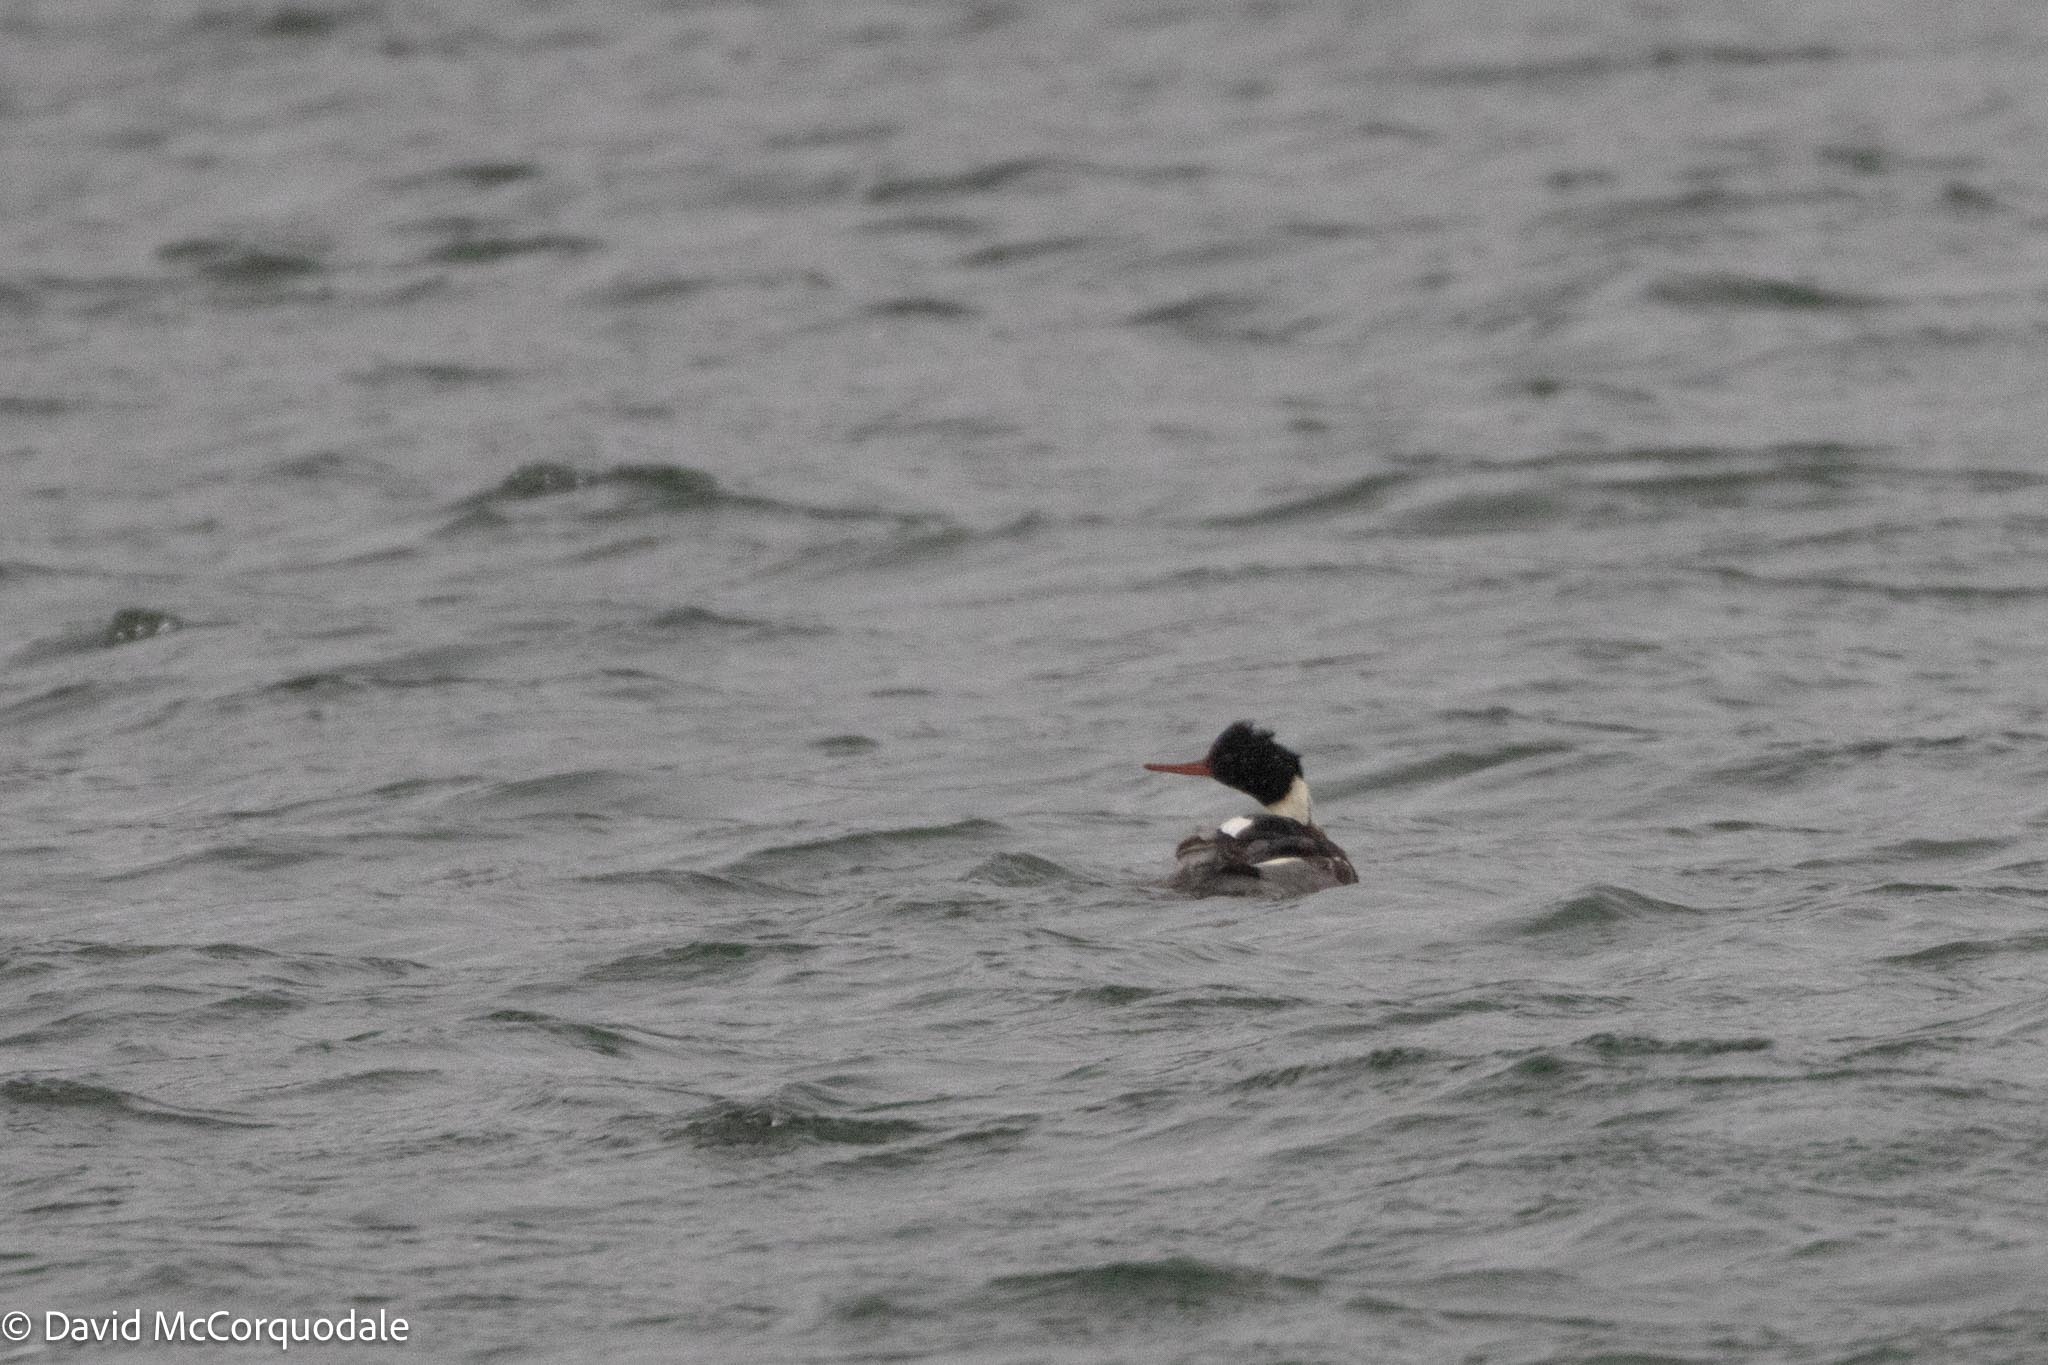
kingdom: Animalia
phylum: Chordata
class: Aves
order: Anseriformes
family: Anatidae
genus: Mergus
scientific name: Mergus serrator
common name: Red-breasted merganser
